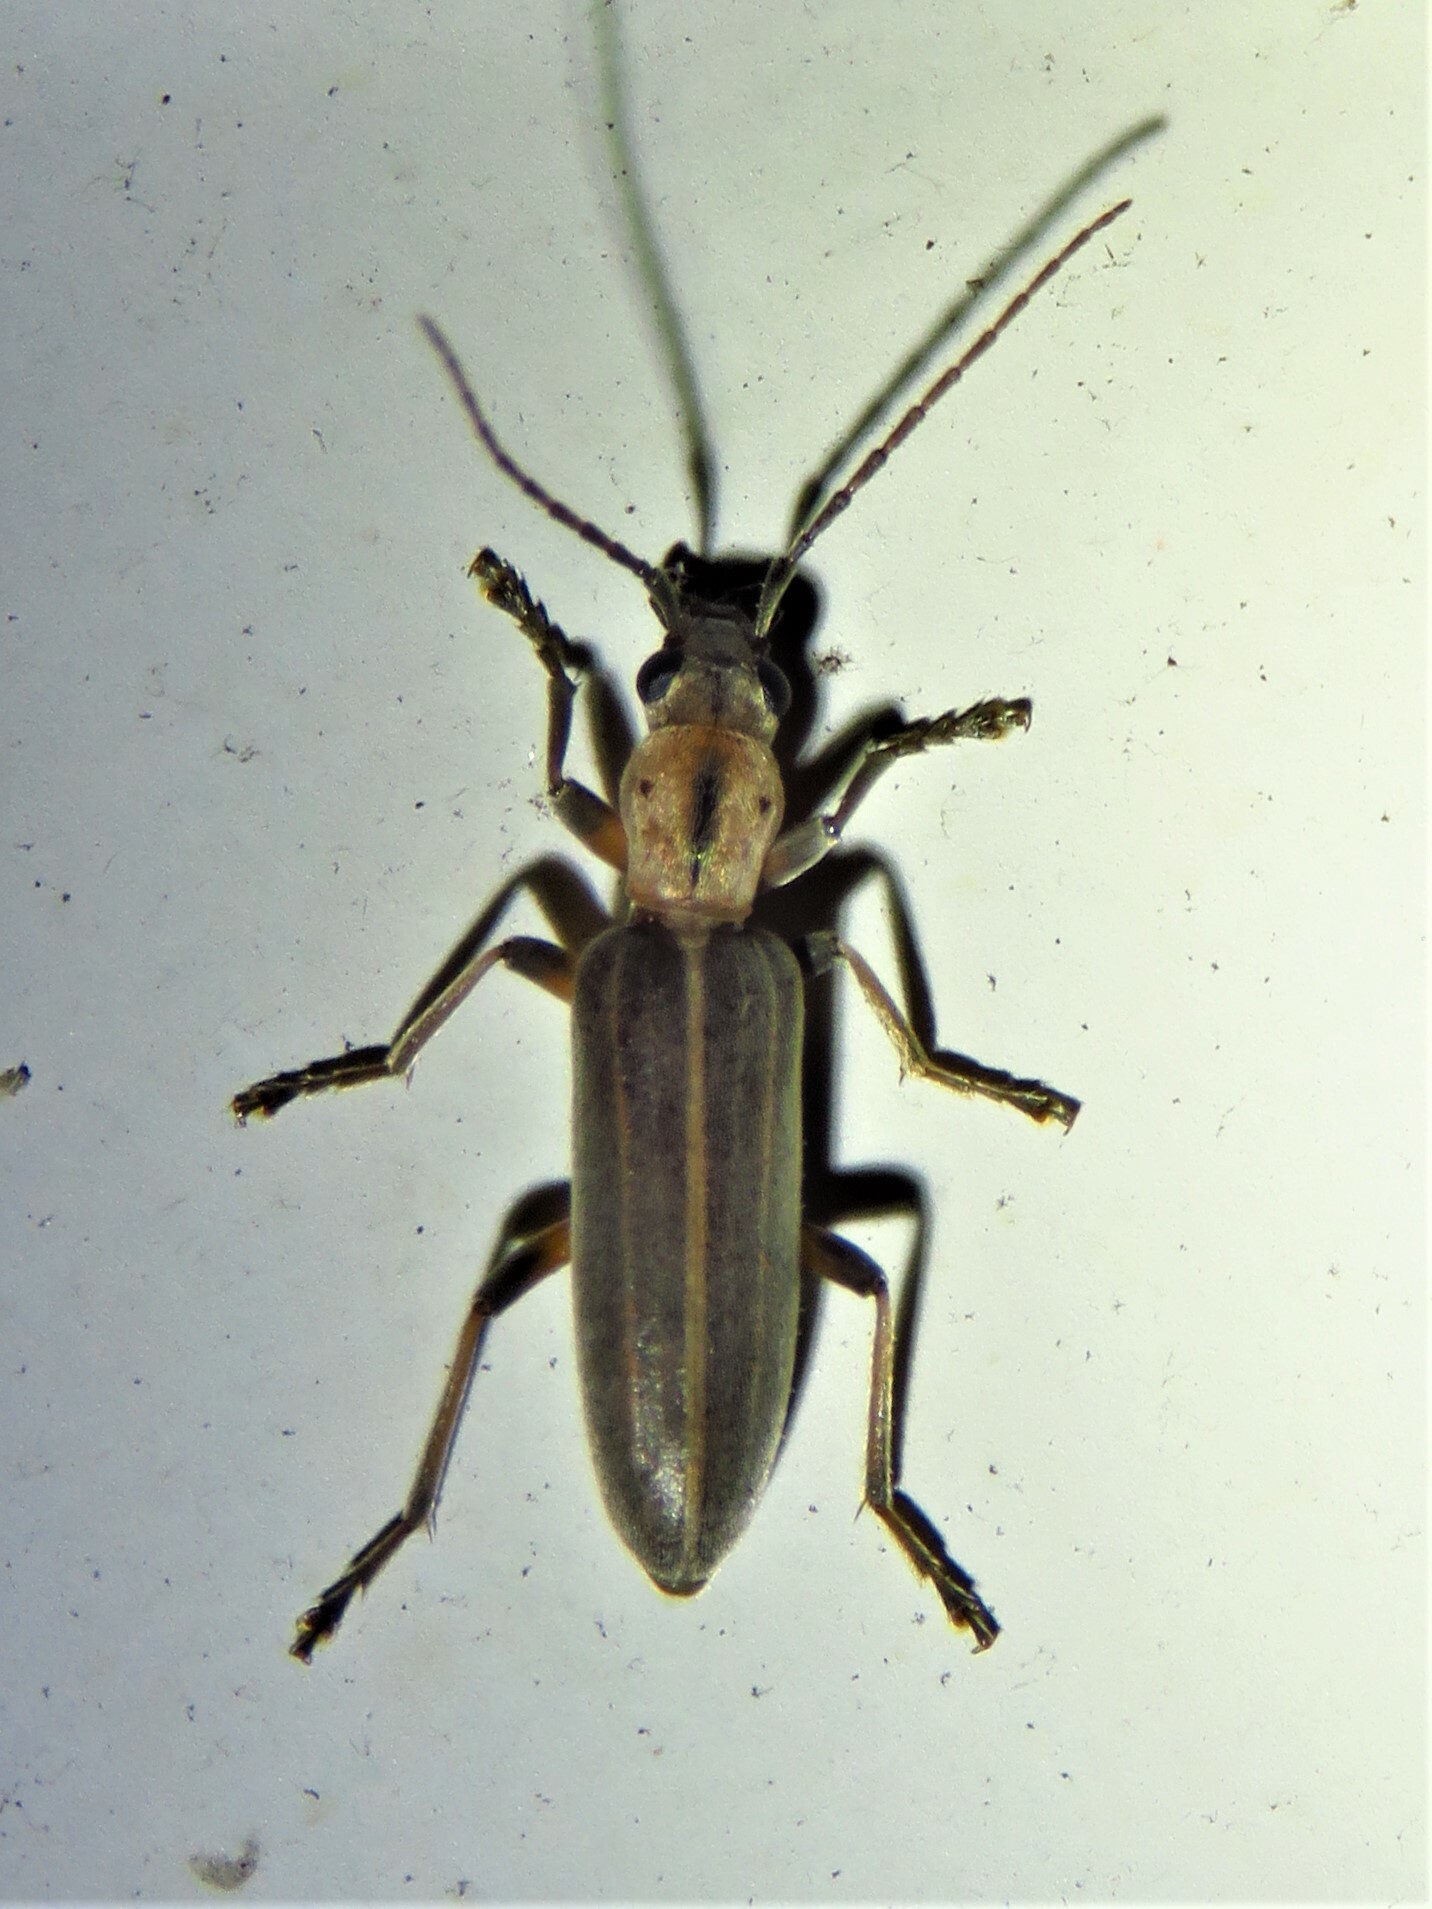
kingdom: Animalia
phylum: Arthropoda
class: Insecta
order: Coleoptera
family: Oedemeridae
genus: Oxacis
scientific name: Oxacis bernatettei
